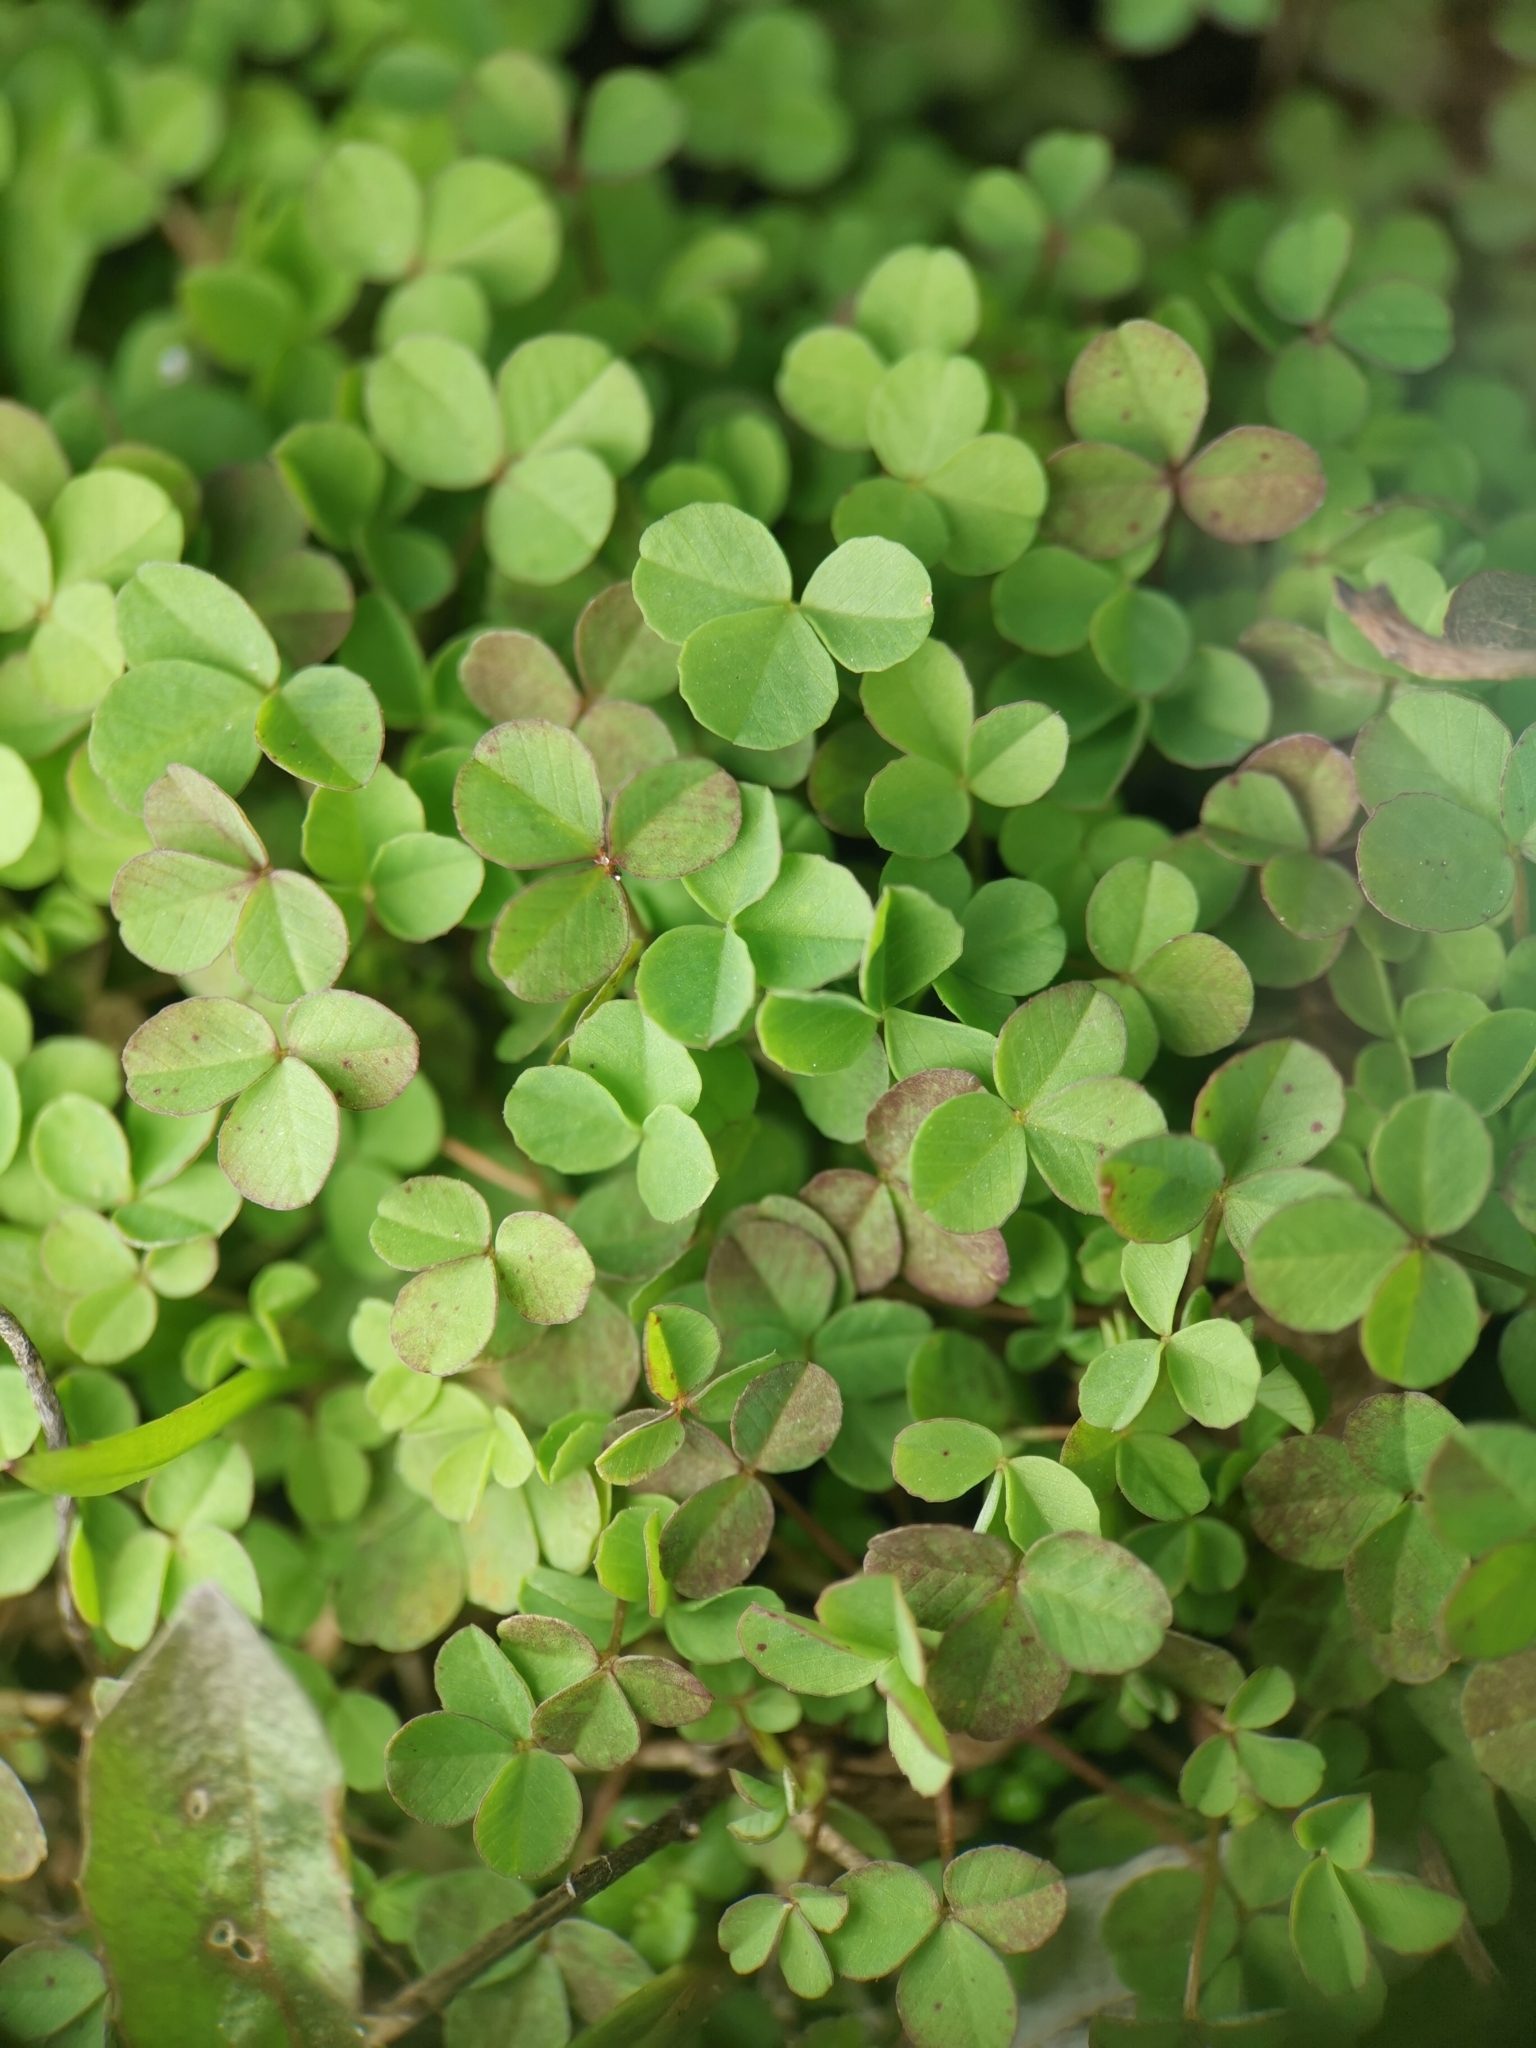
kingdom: Plantae
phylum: Tracheophyta
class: Magnoliopsida
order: Fabales
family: Fabaceae
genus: Trifolium
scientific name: Trifolium repens
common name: White clover
